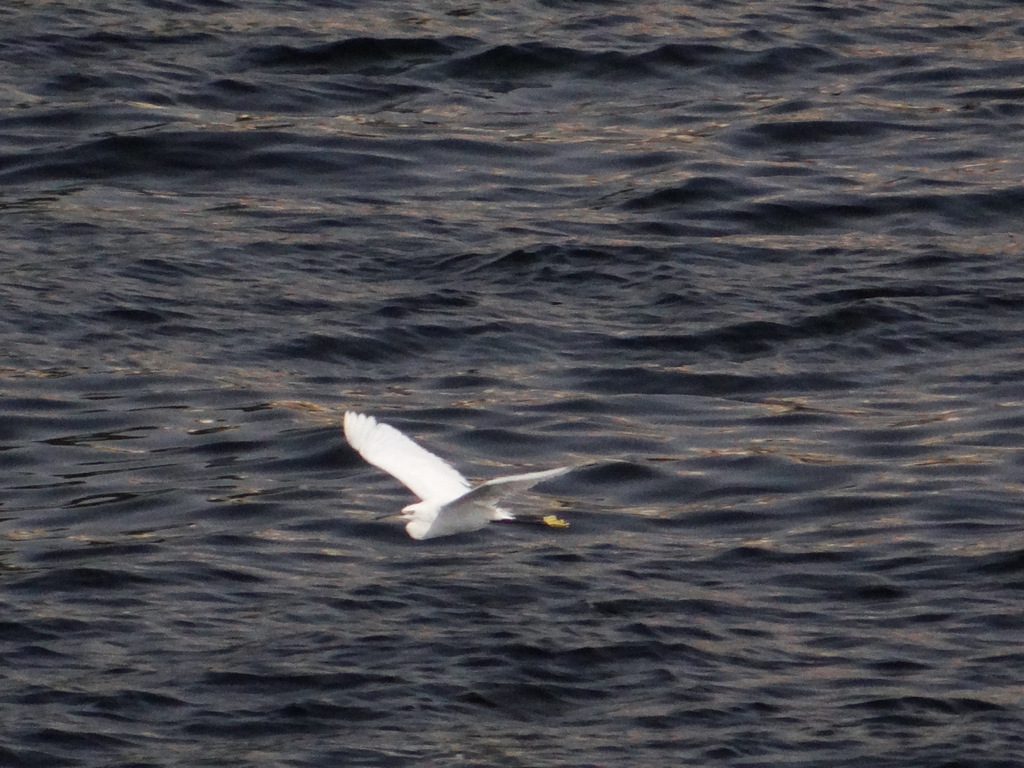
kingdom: Animalia
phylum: Chordata
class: Aves
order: Pelecaniformes
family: Ardeidae
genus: Egretta
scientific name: Egretta garzetta
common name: Little egret
